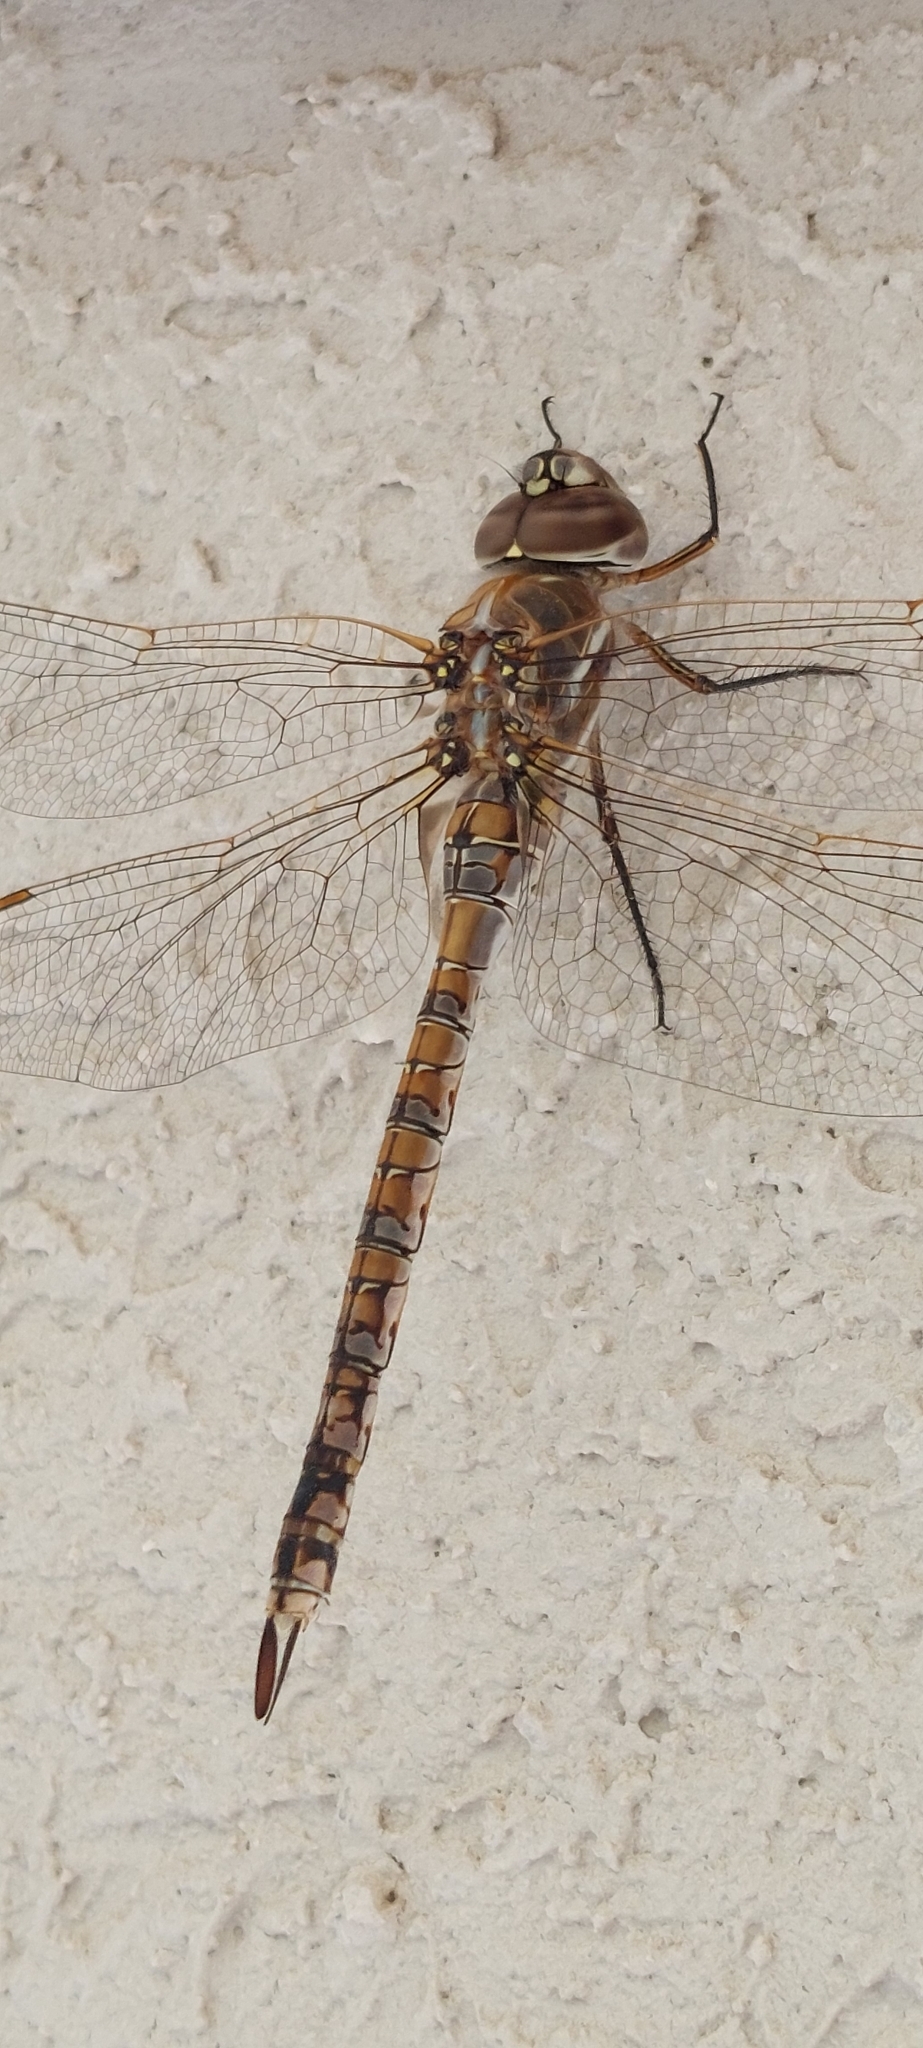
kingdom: Animalia
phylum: Arthropoda
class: Insecta
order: Odonata
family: Aeshnidae
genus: Rhionaeschna
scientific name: Rhionaeschna absoluta
